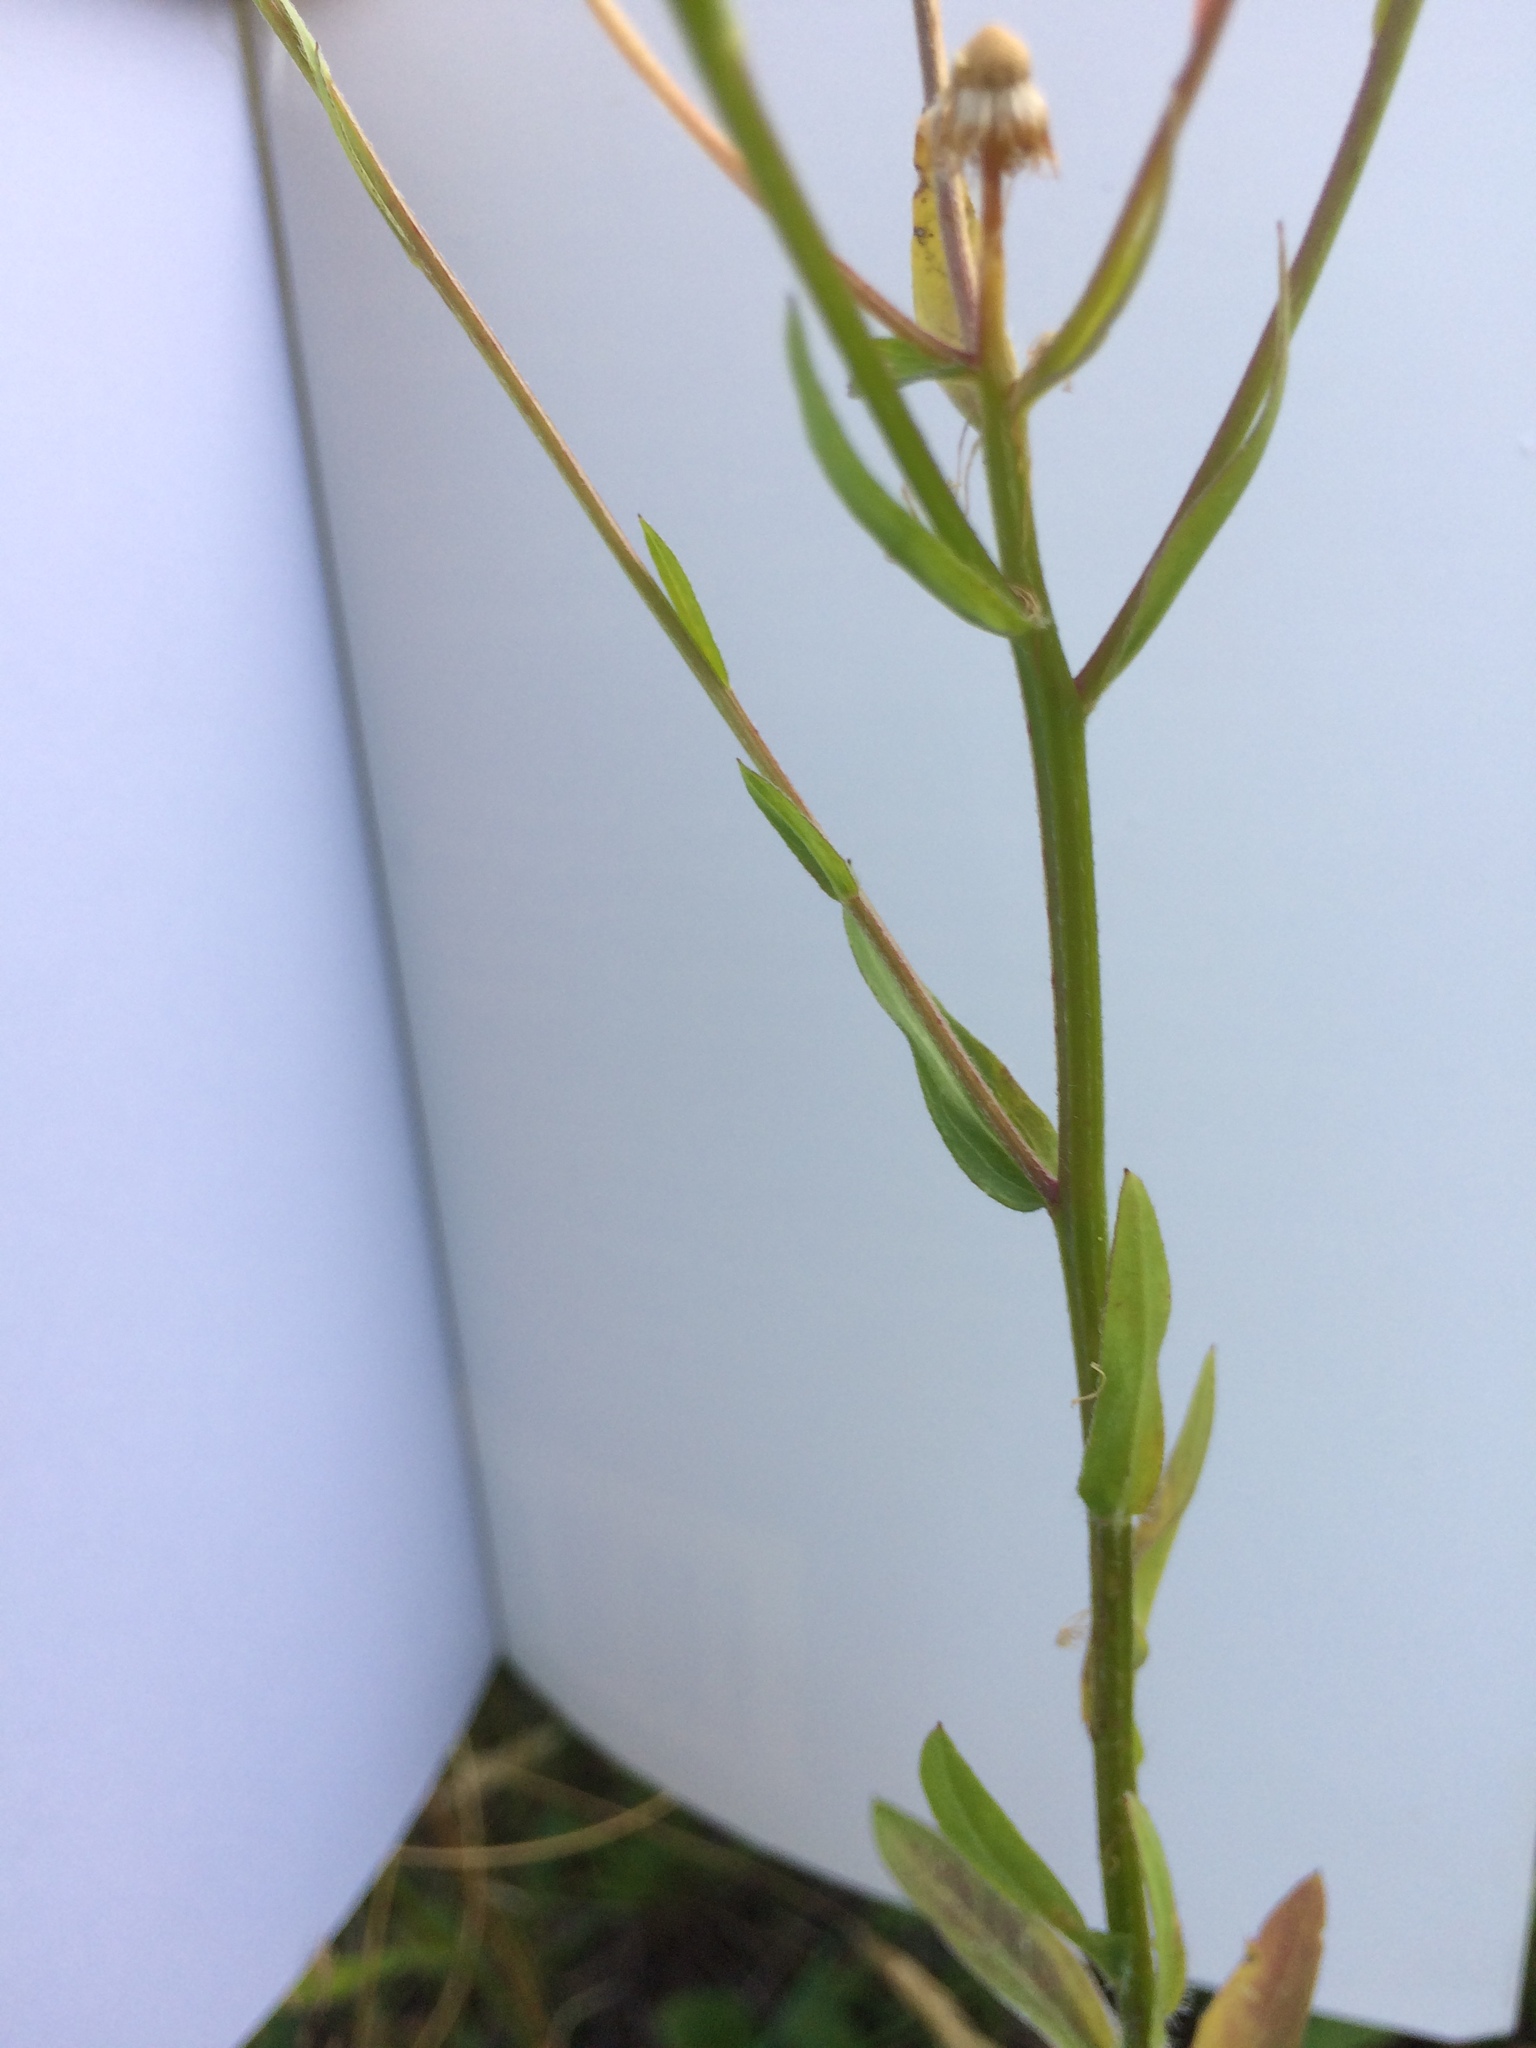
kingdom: Plantae
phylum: Tracheophyta
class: Magnoliopsida
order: Asterales
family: Asteraceae
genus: Erigeron
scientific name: Erigeron strigosus
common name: Common eastern fleabane
